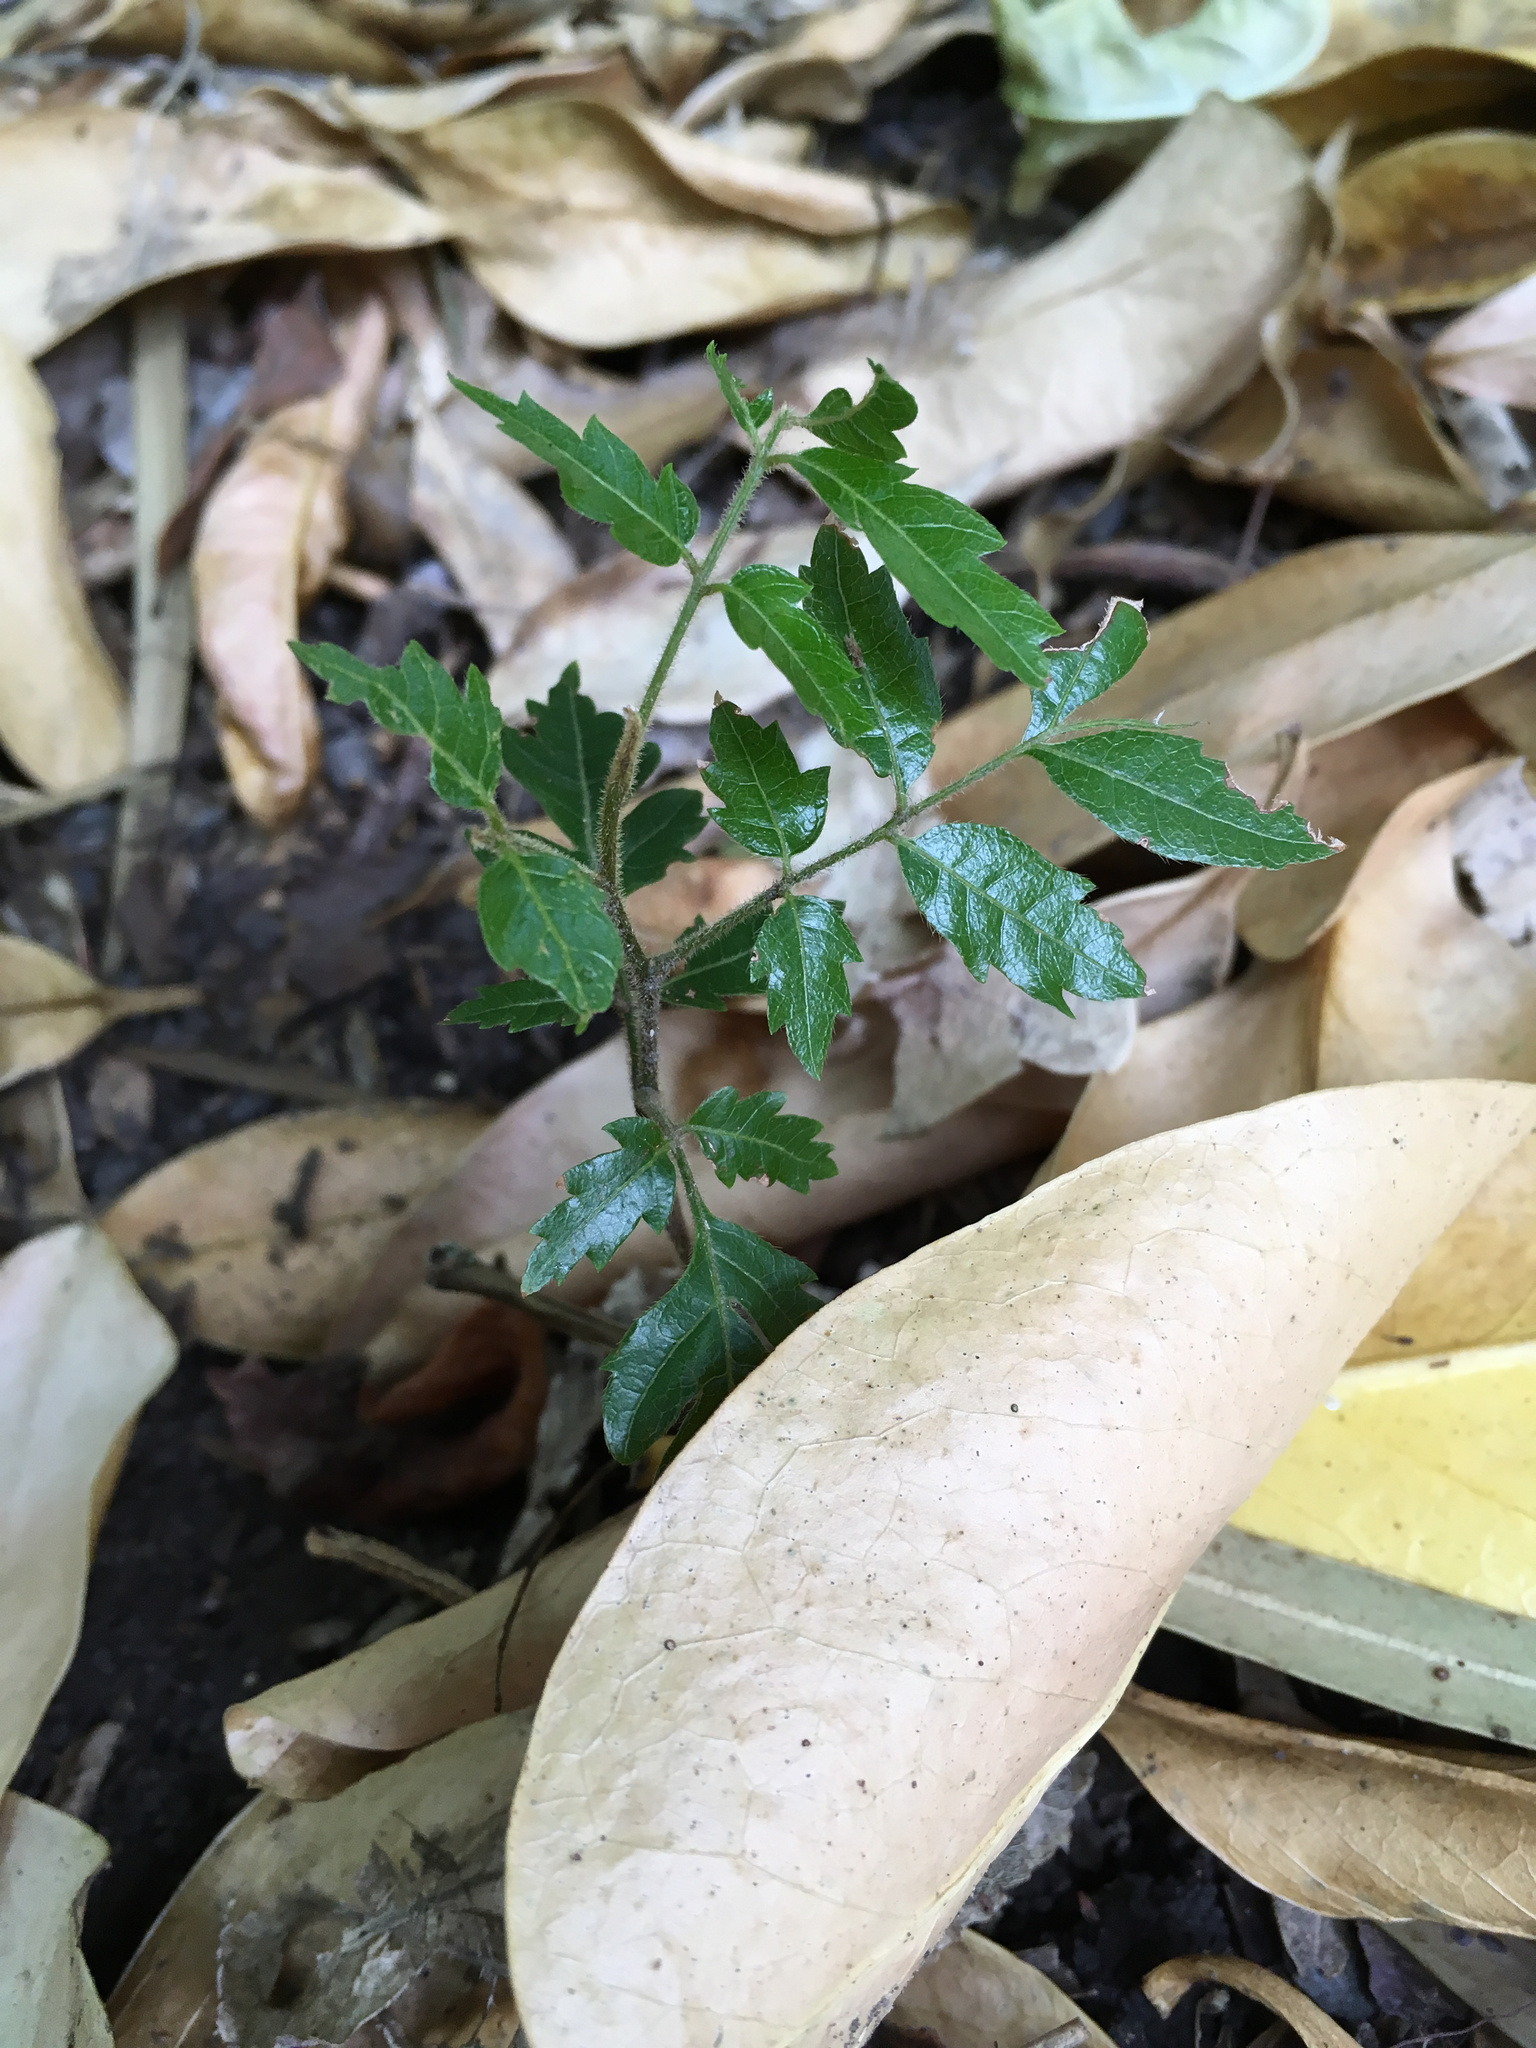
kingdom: Plantae
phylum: Tracheophyta
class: Magnoliopsida
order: Sapindales
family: Sapindaceae
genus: Alectryon
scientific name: Alectryon excelsus
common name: Three kings titoki
